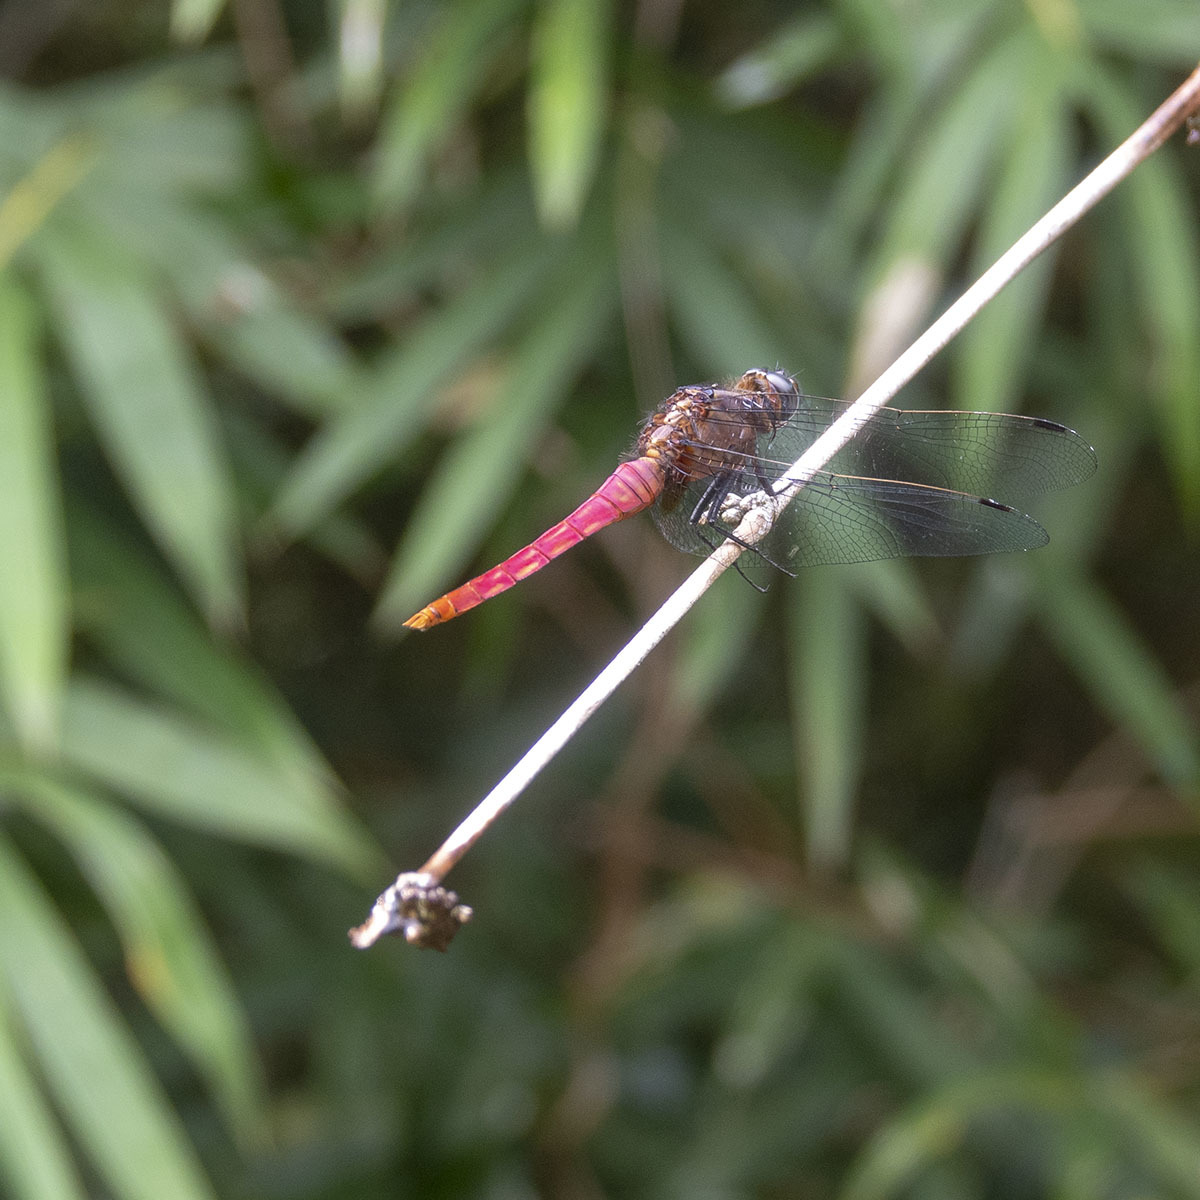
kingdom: Animalia
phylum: Arthropoda
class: Insecta
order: Odonata
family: Libellulidae
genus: Orthetrum
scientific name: Orthetrum pruinosum
